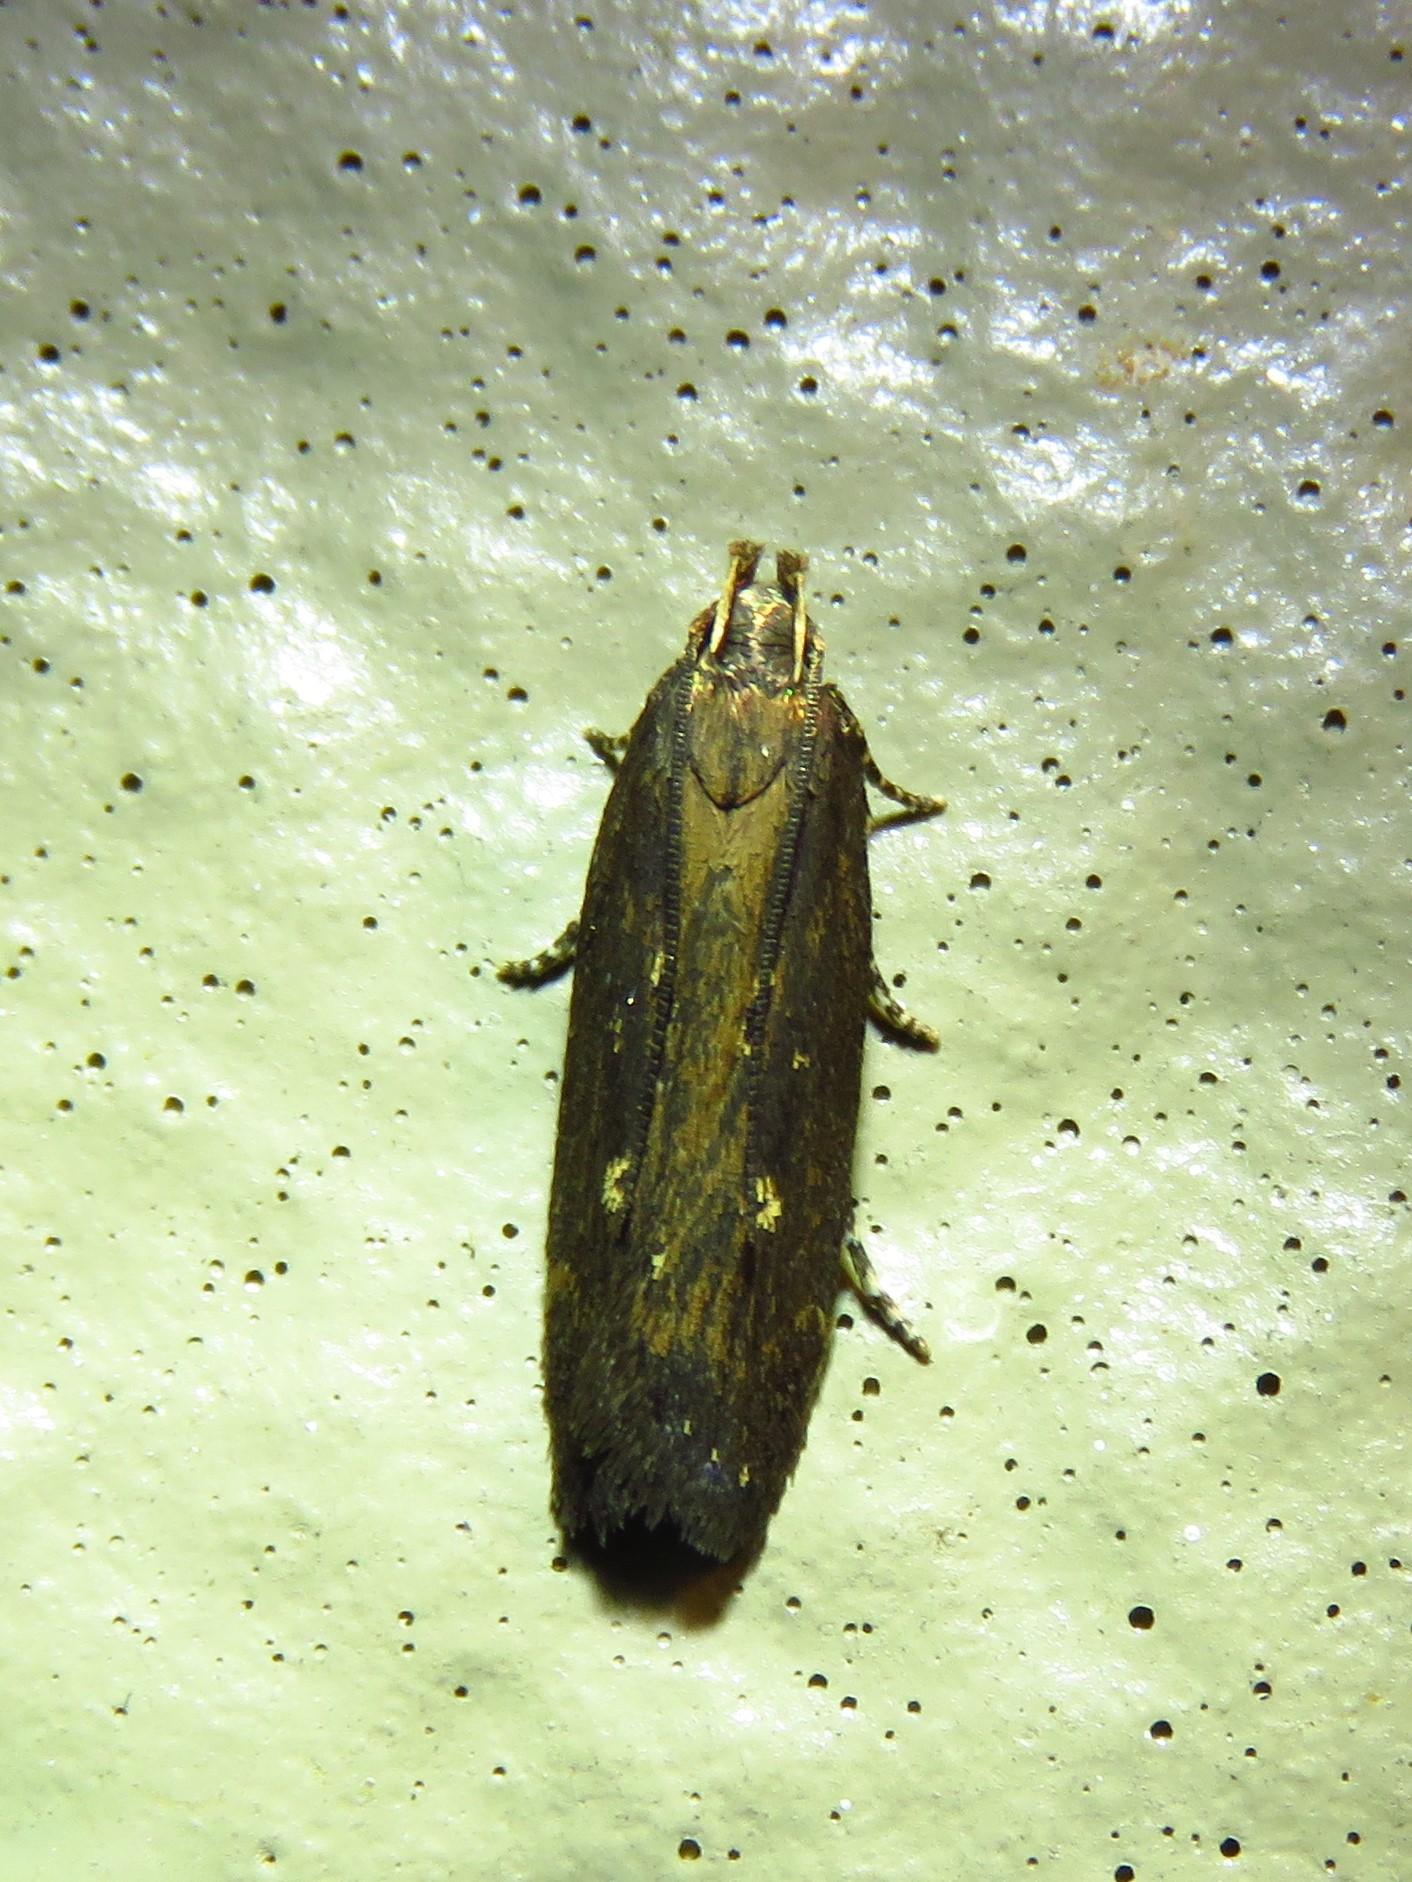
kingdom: Animalia
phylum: Arthropoda
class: Insecta
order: Lepidoptera
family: Gelechiidae
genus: Chionodes
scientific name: Chionodes discoocellella
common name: Eye-ringed chionodes moth
